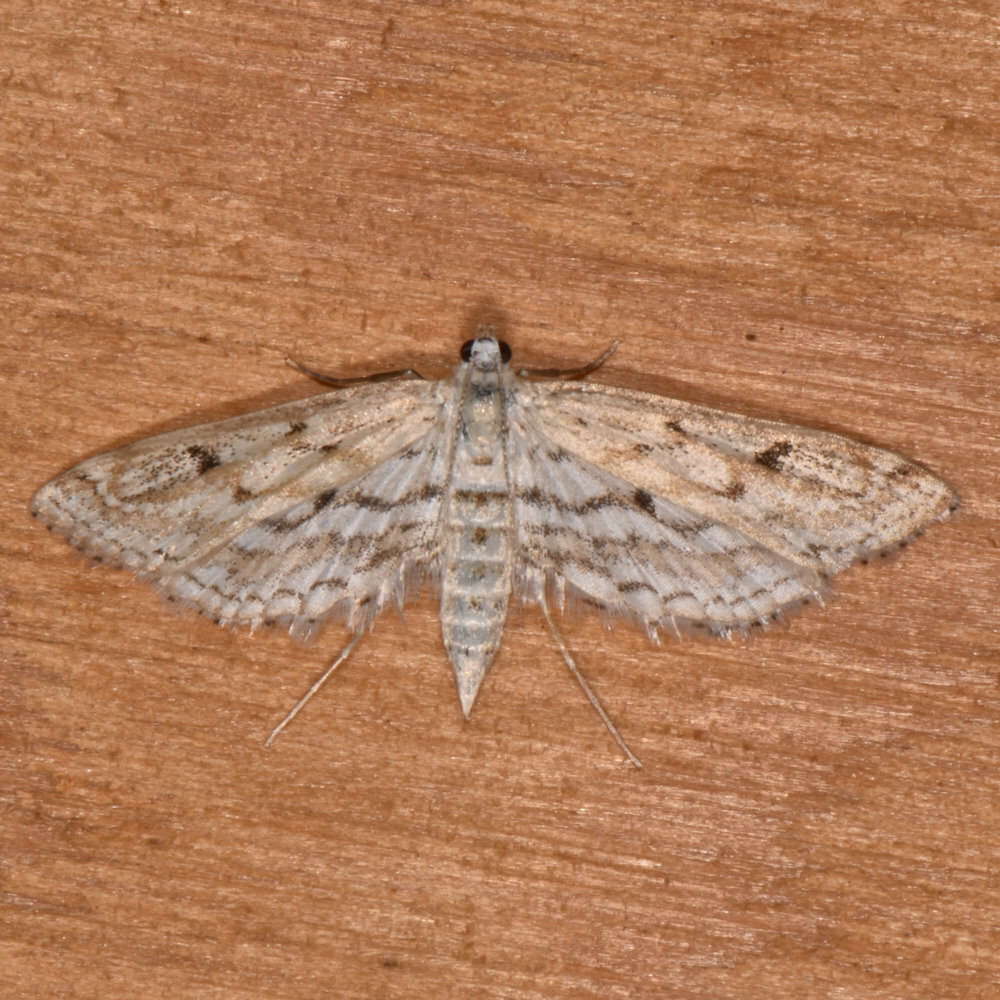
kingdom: Animalia
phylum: Arthropoda
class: Insecta
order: Lepidoptera
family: Crambidae
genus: Parapoynx
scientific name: Parapoynx allionealis
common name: Bladderwort casemaker
